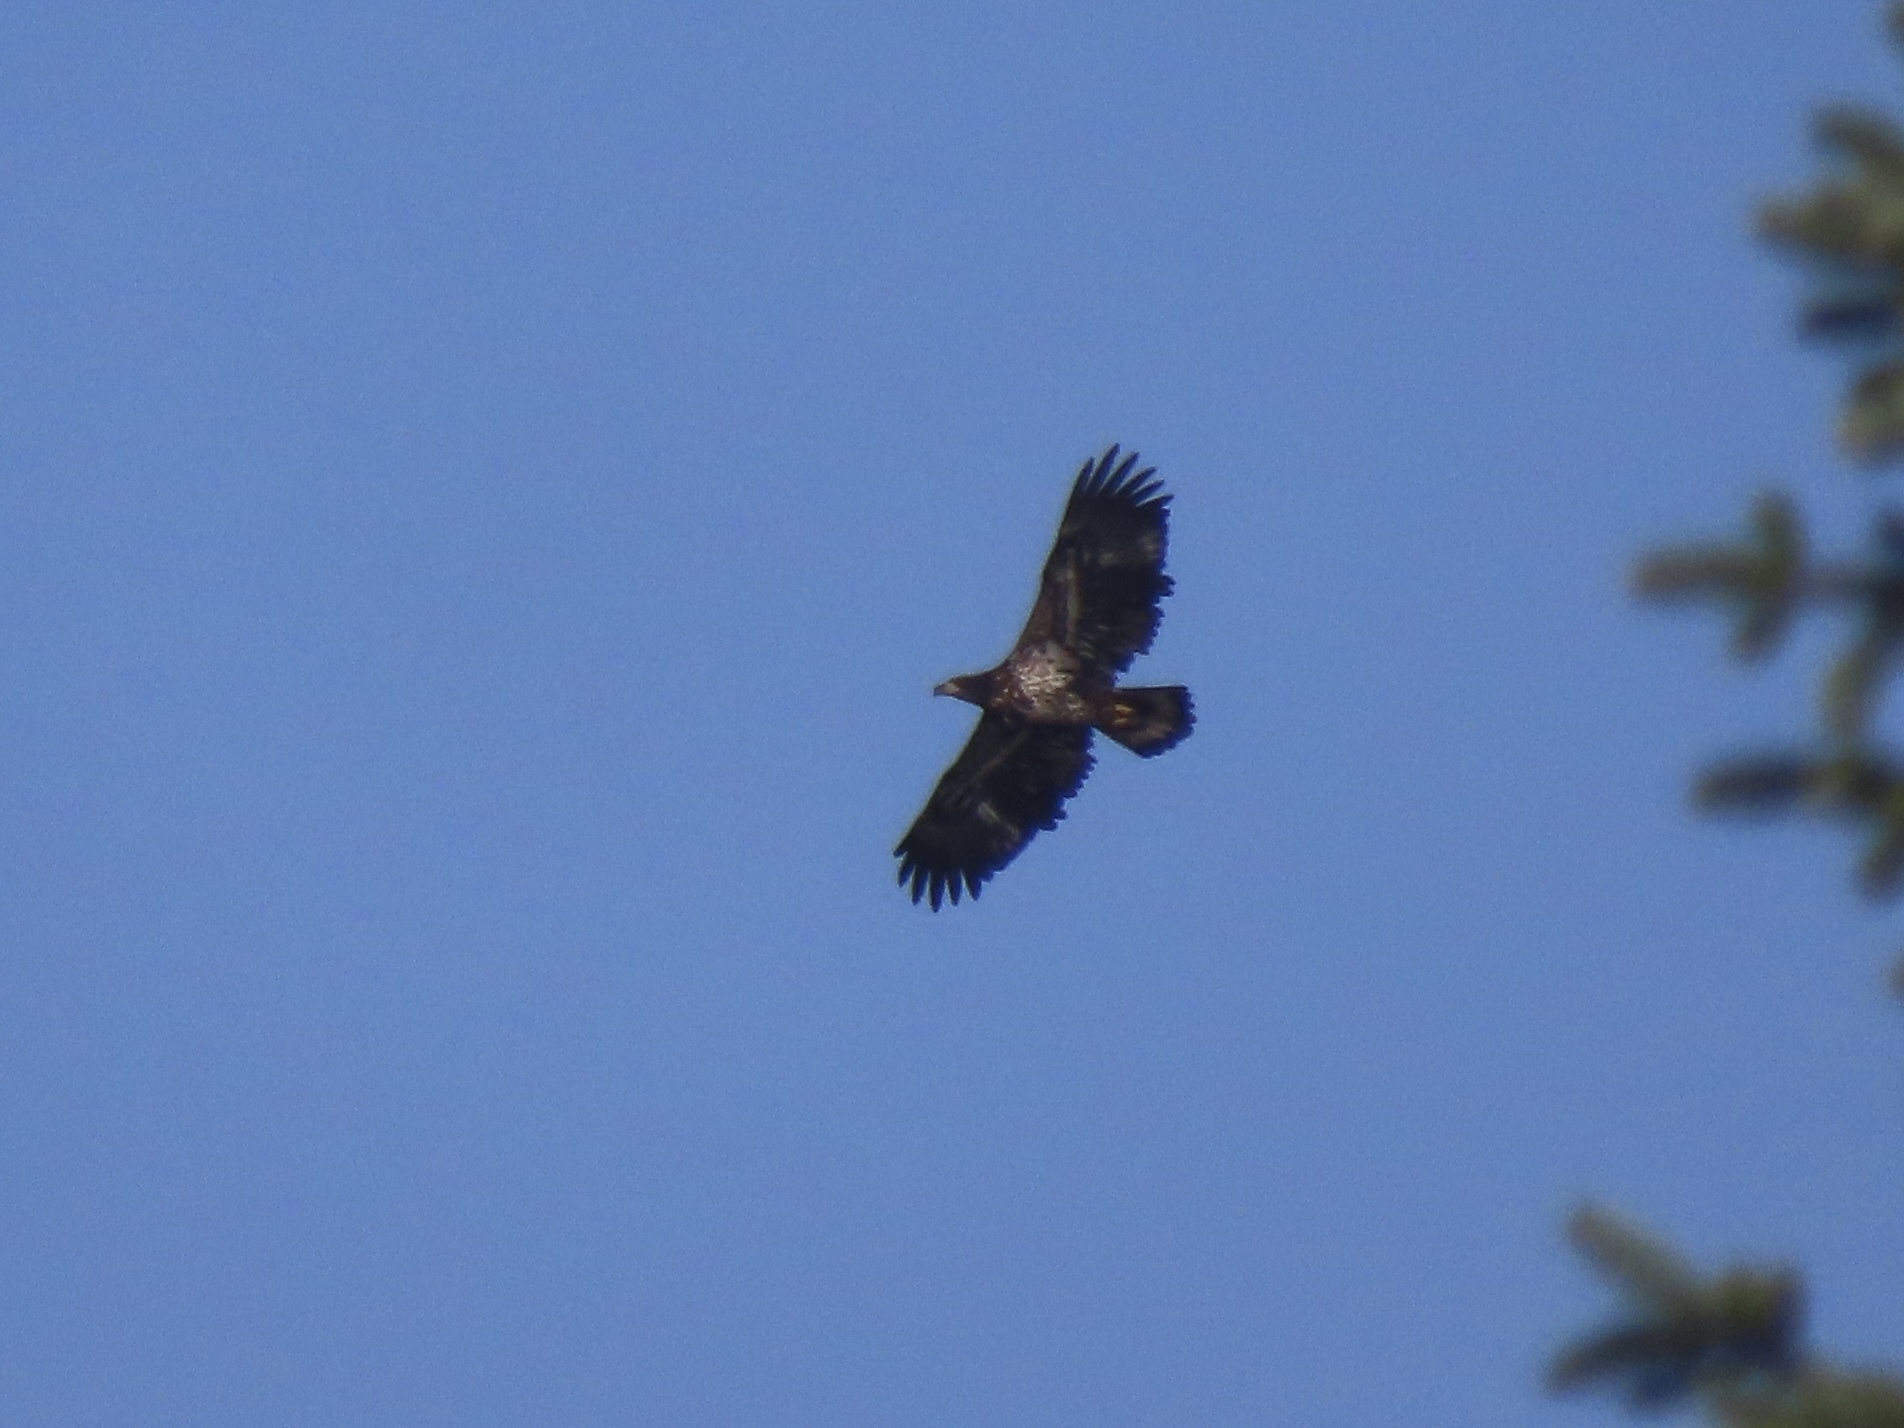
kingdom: Animalia
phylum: Chordata
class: Aves
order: Accipitriformes
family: Accipitridae
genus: Haliaeetus
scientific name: Haliaeetus leucocephalus
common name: Bald eagle
